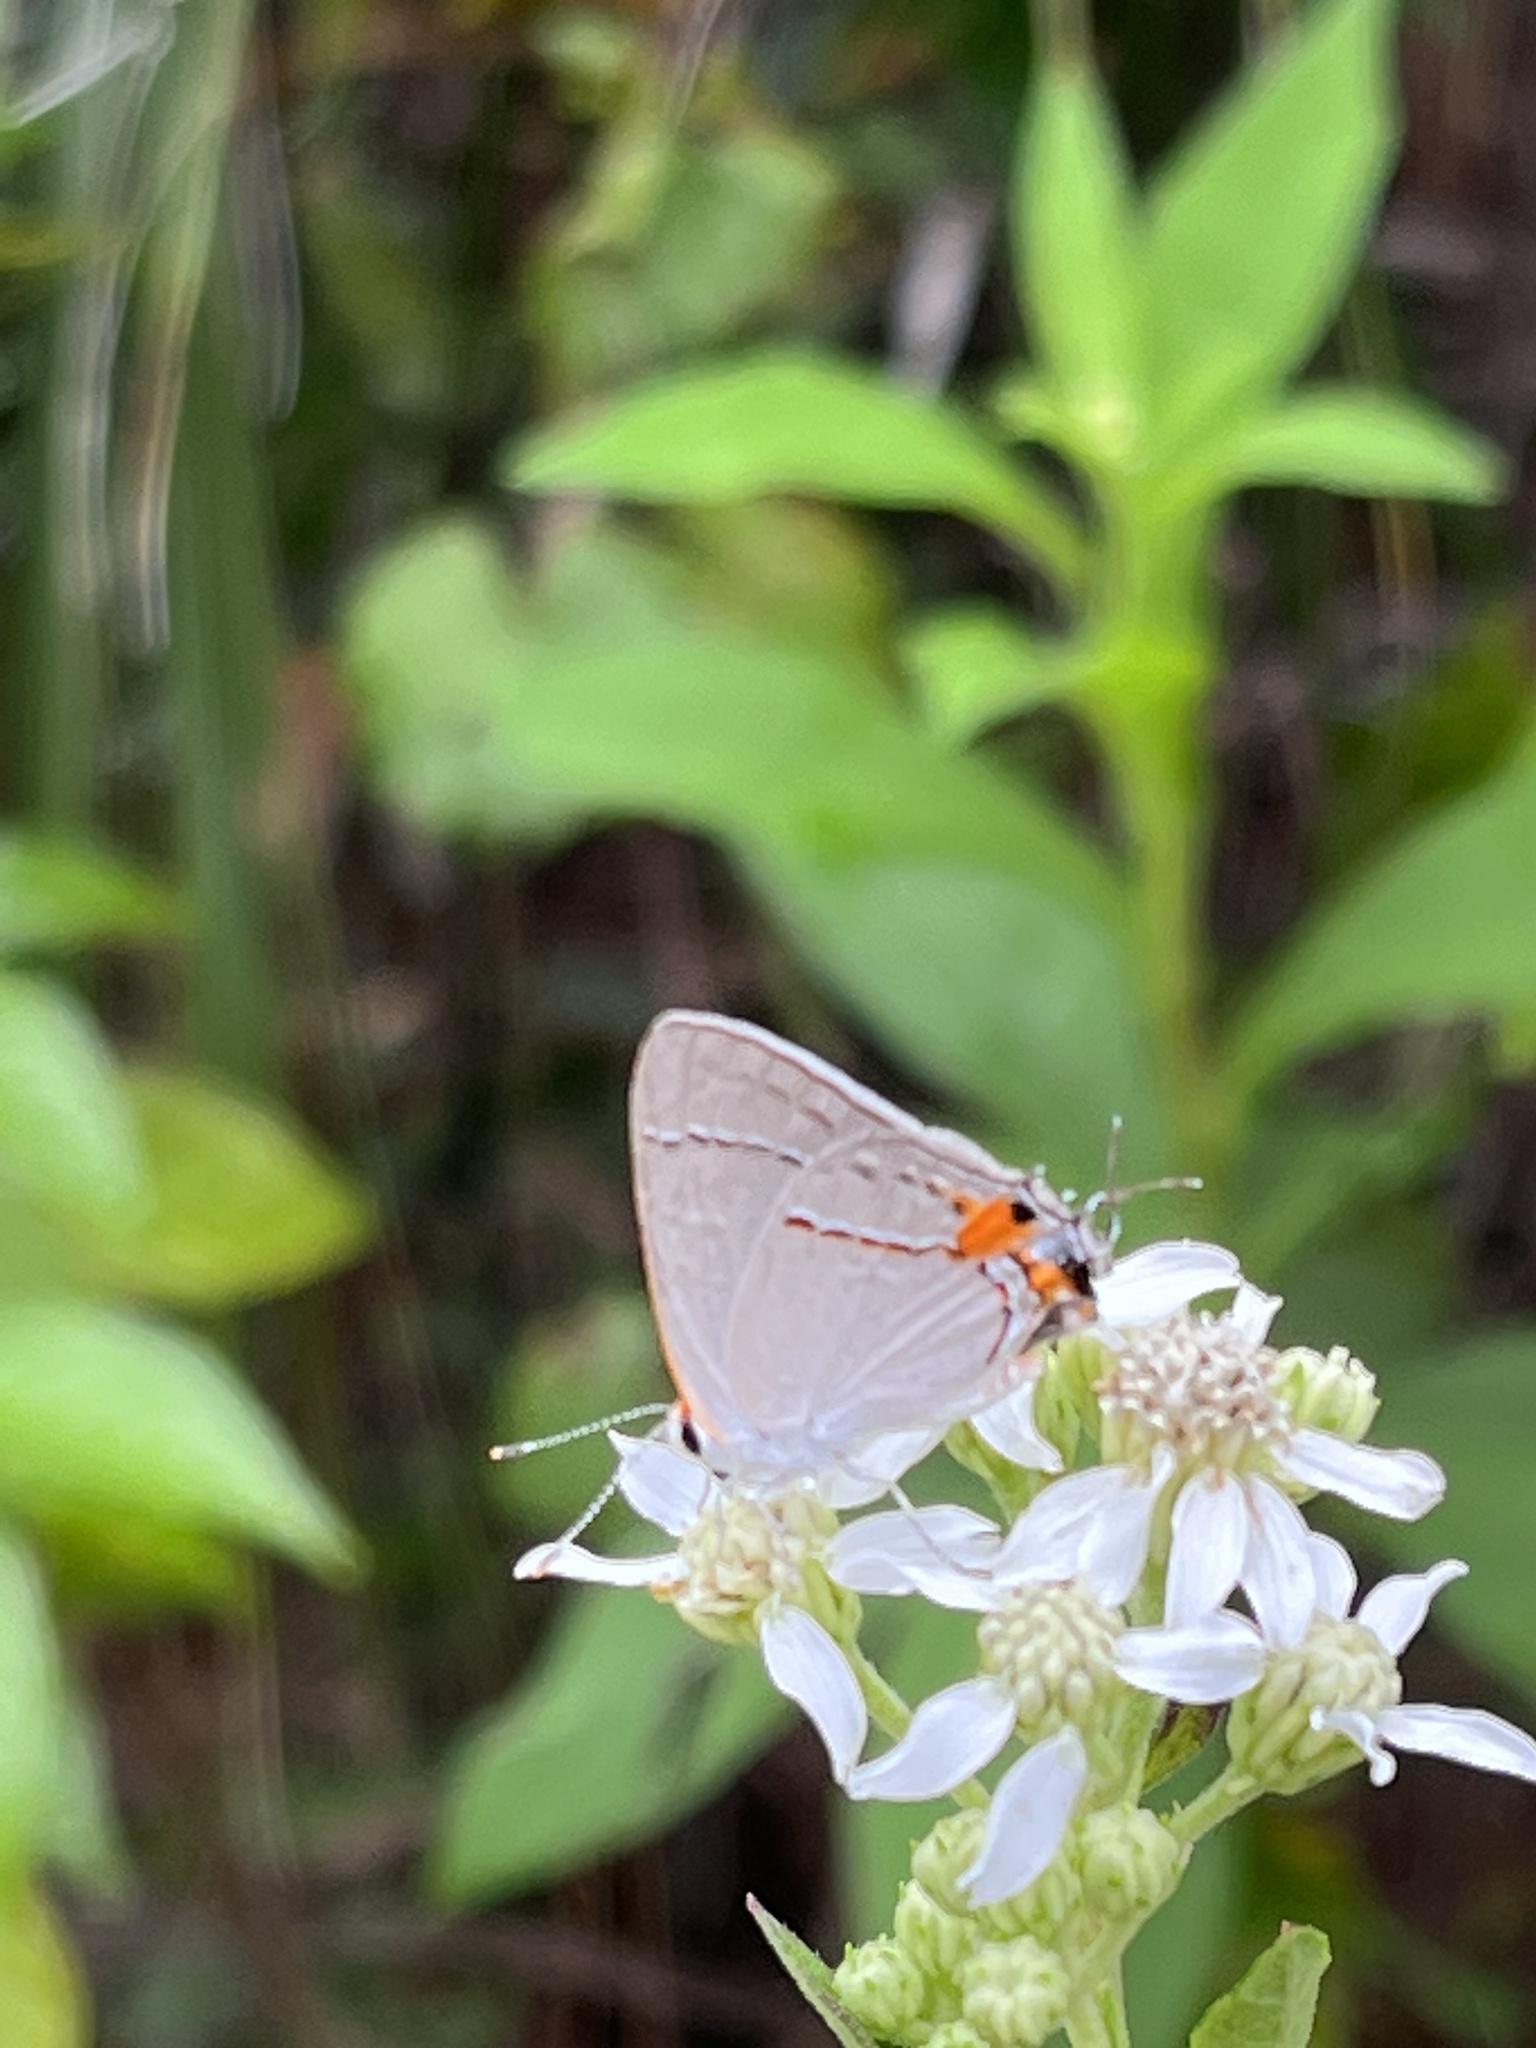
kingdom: Animalia
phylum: Arthropoda
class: Insecta
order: Lepidoptera
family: Lycaenidae
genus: Strymon
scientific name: Strymon melinus
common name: Gray hairstreak
